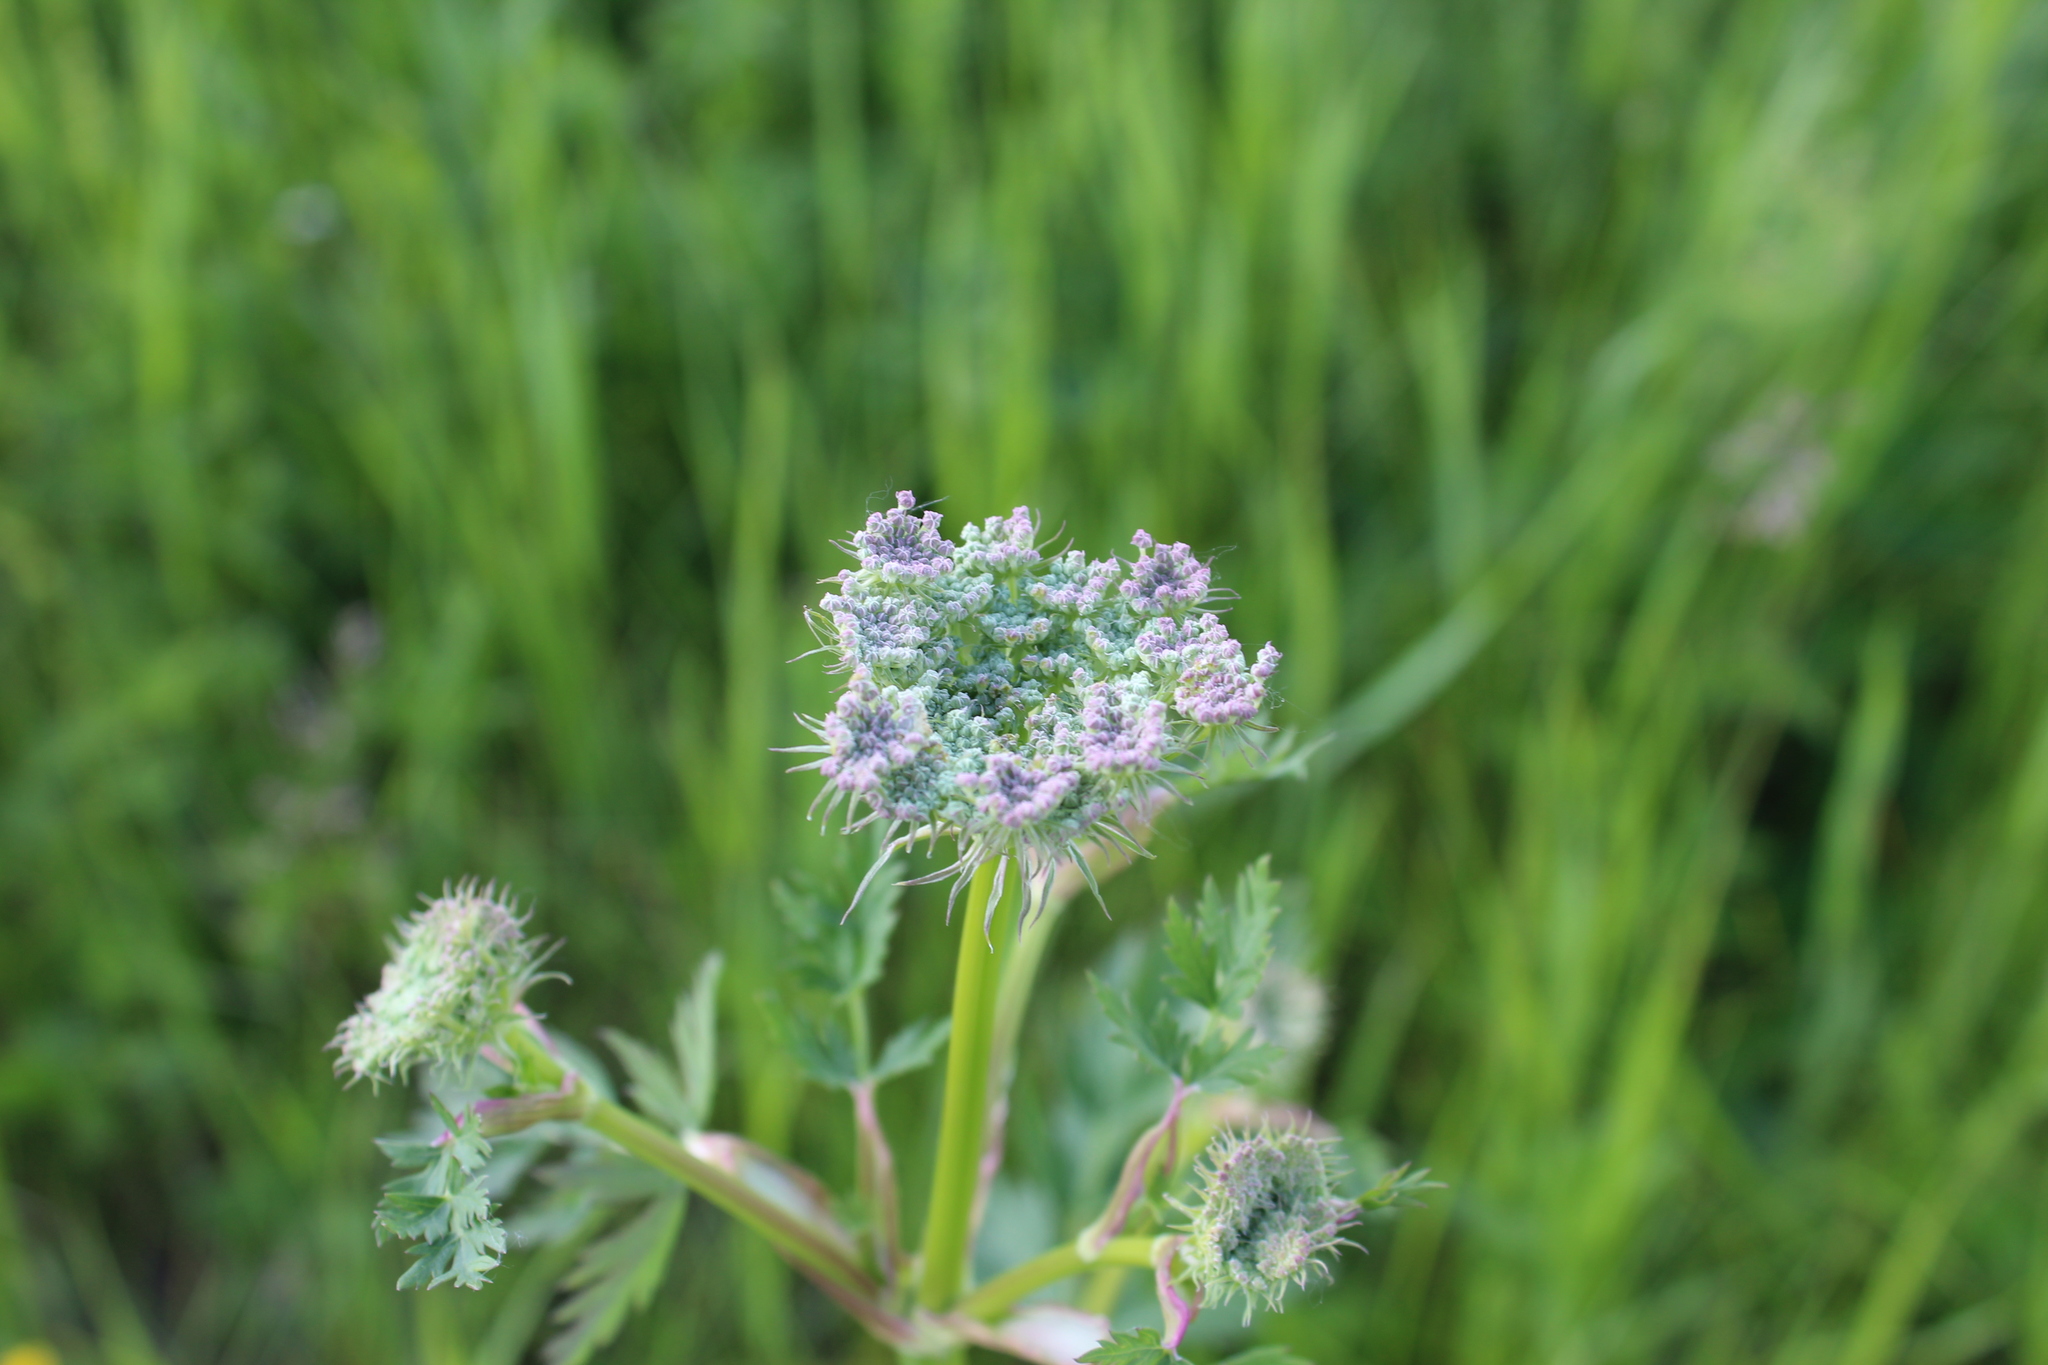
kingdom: Plantae
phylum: Tracheophyta
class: Magnoliopsida
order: Apiales
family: Apiaceae
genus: Seseli
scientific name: Seseli libanotis
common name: Mooncarrot
